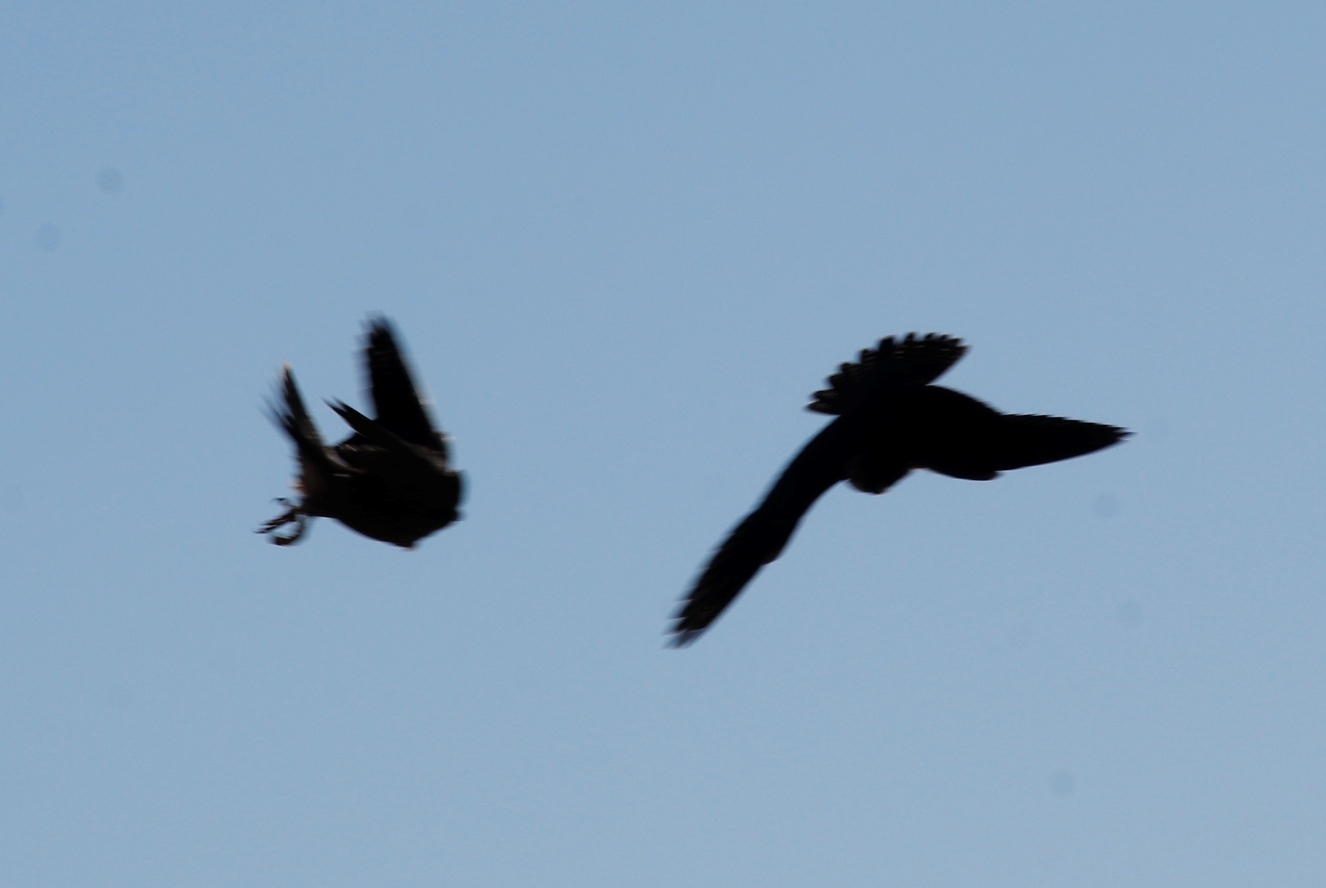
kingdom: Animalia
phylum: Chordata
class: Aves
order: Falconiformes
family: Falconidae
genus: Falco
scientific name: Falco peregrinus
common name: Peregrine falcon
